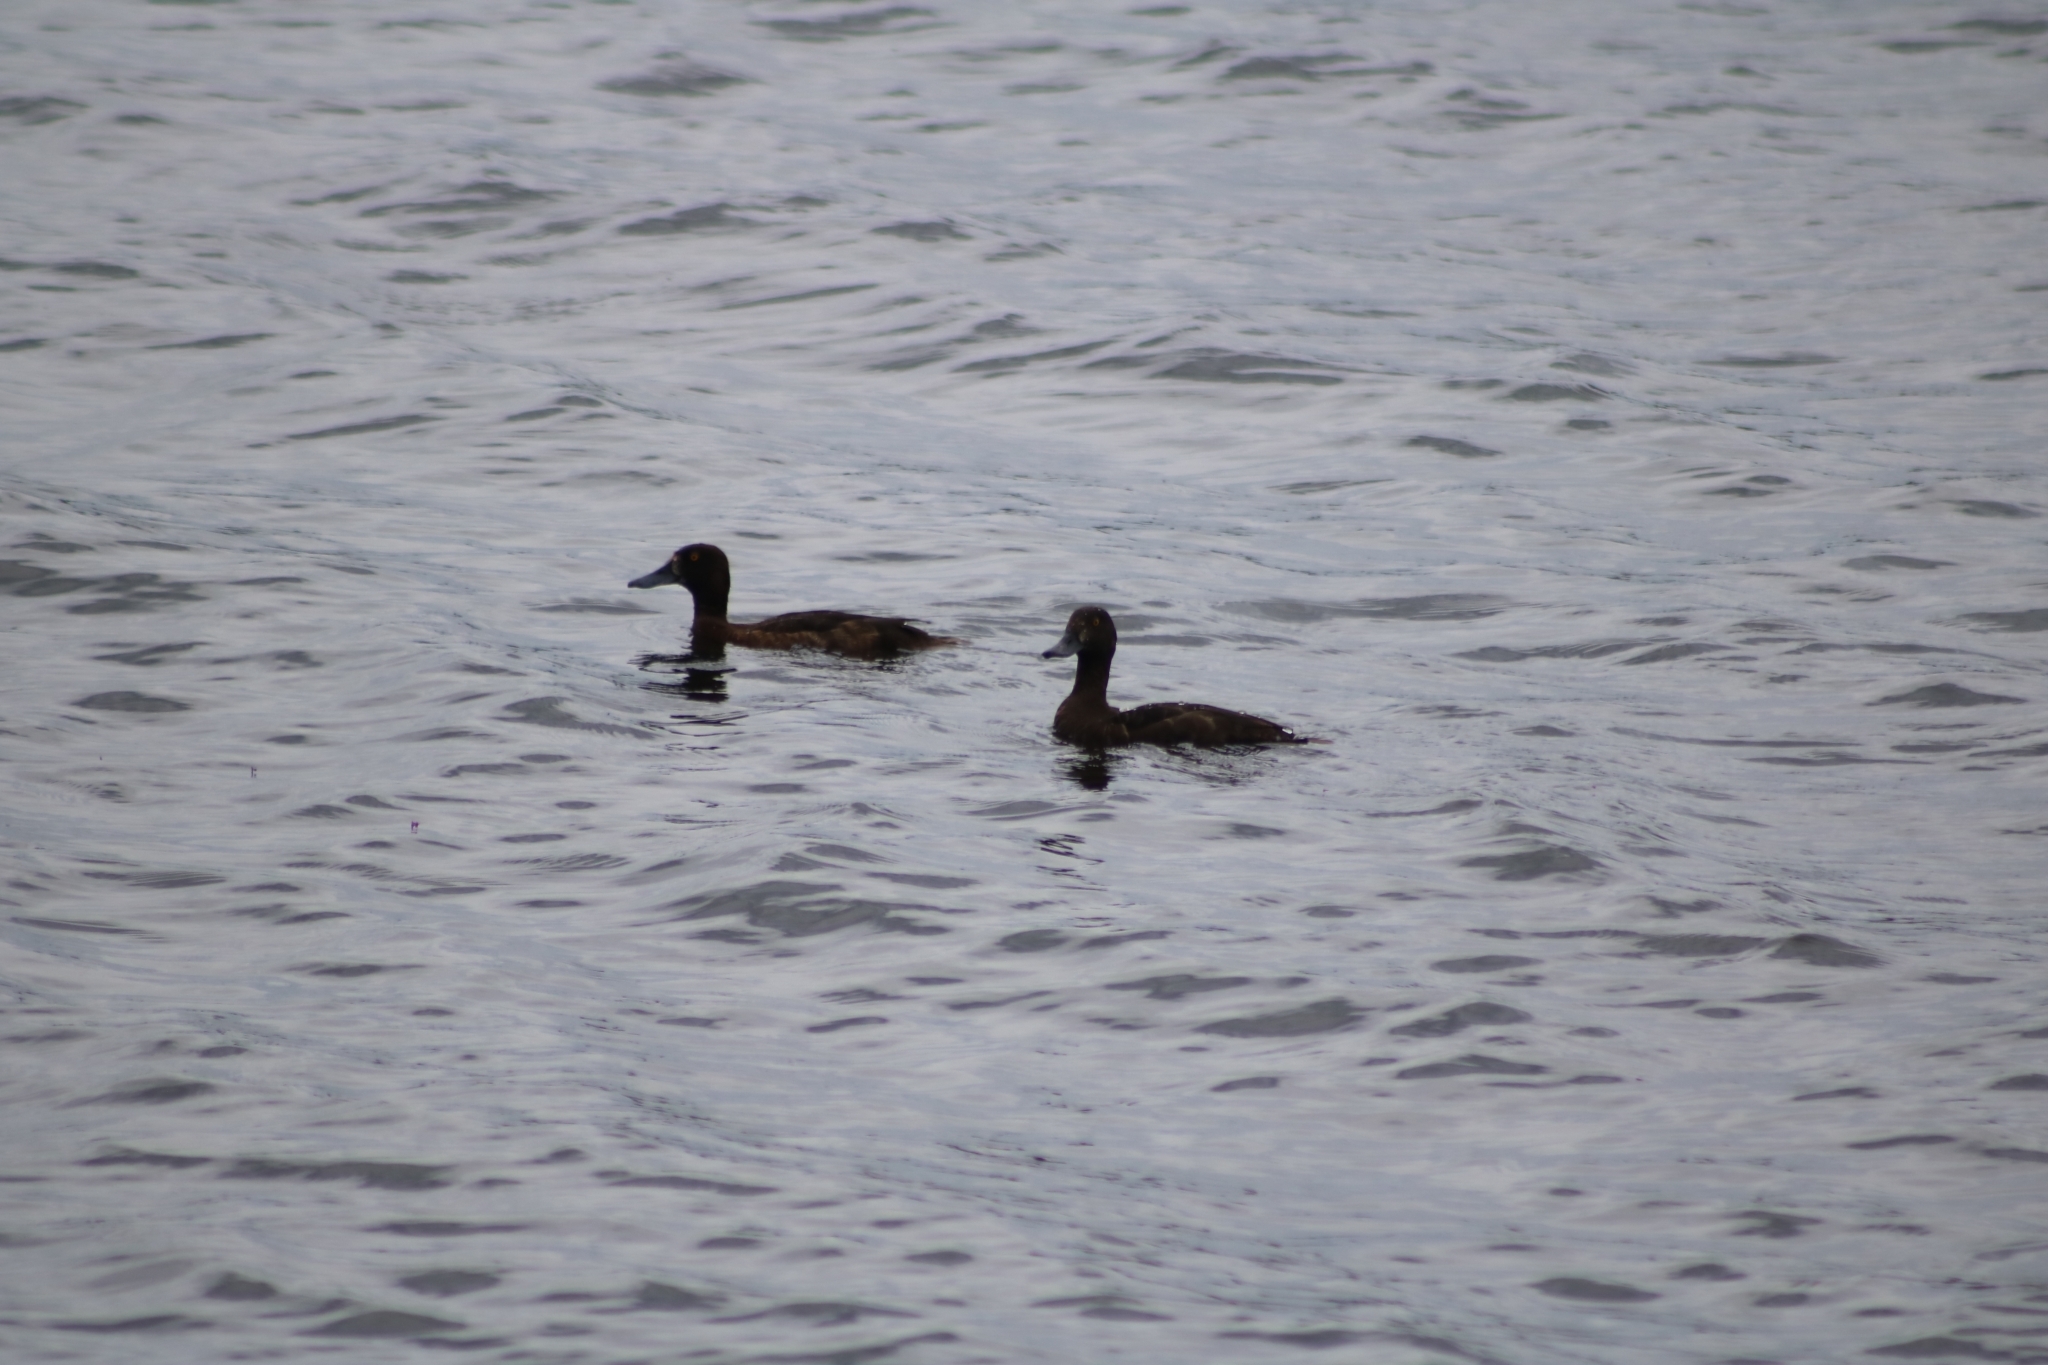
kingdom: Animalia
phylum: Chordata
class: Aves
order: Anseriformes
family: Anatidae
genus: Aythya
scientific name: Aythya fuligula
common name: Tufted duck
